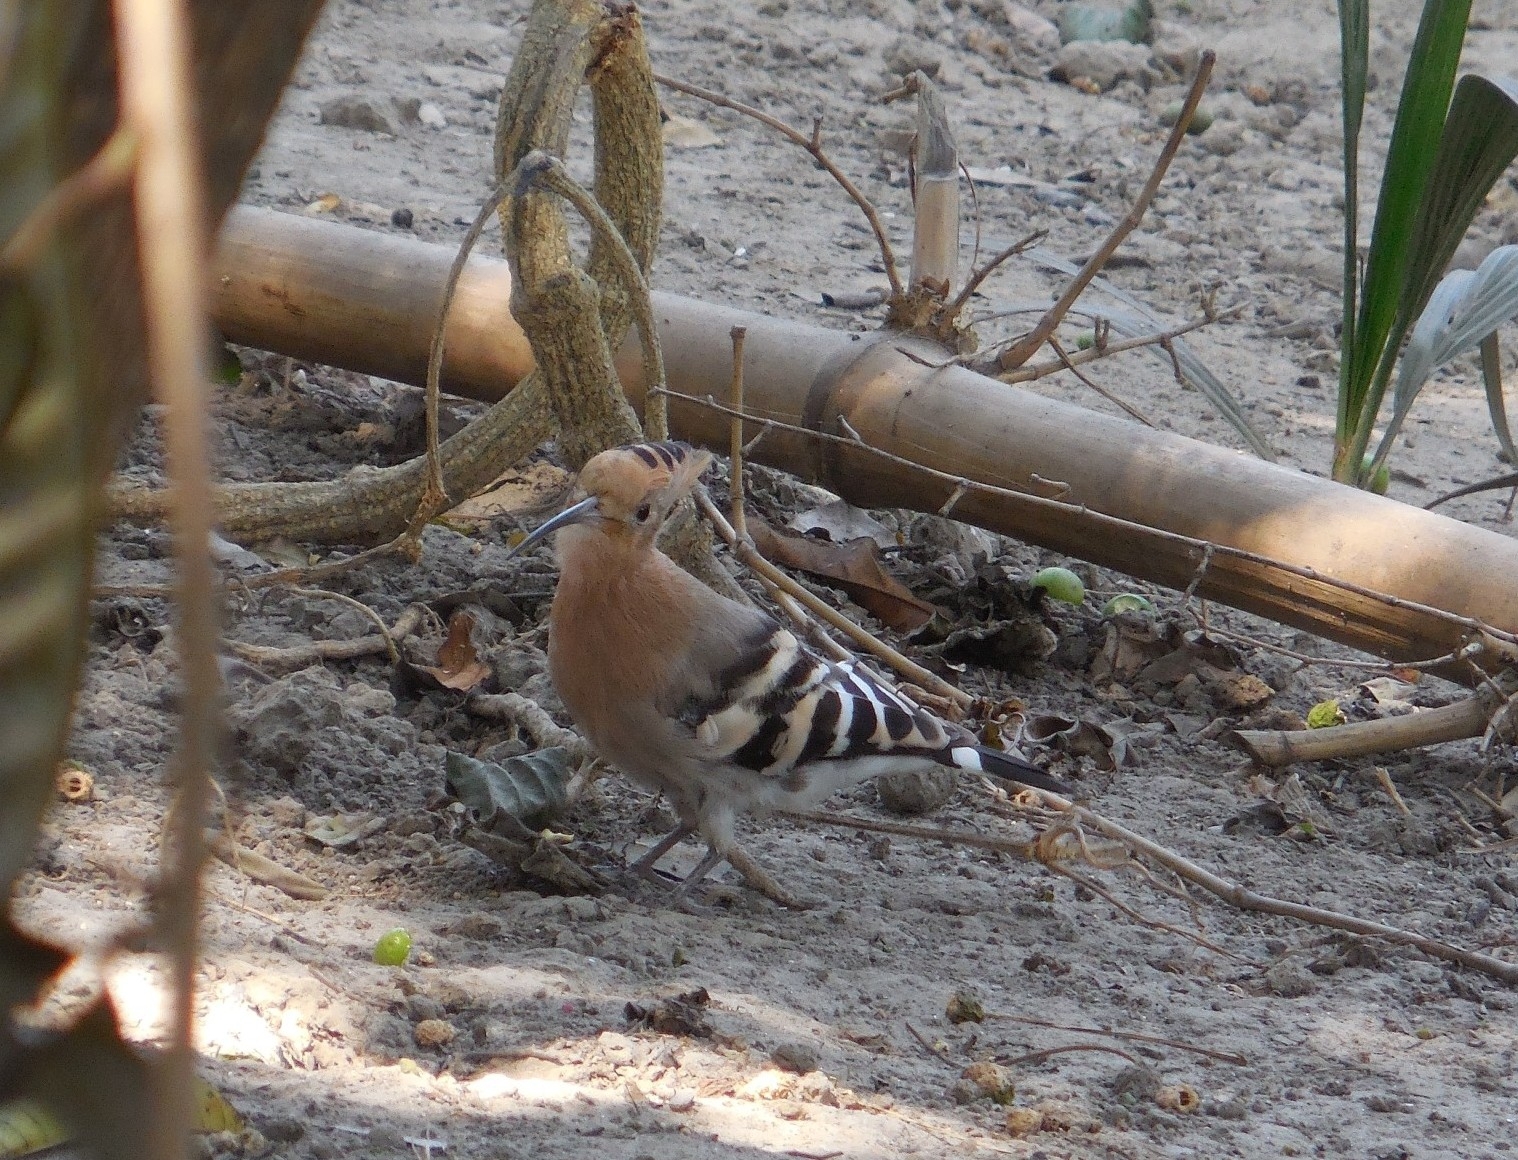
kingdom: Animalia
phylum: Chordata
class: Aves
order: Bucerotiformes
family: Upupidae
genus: Upupa
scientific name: Upupa epops
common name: Eurasian hoopoe
